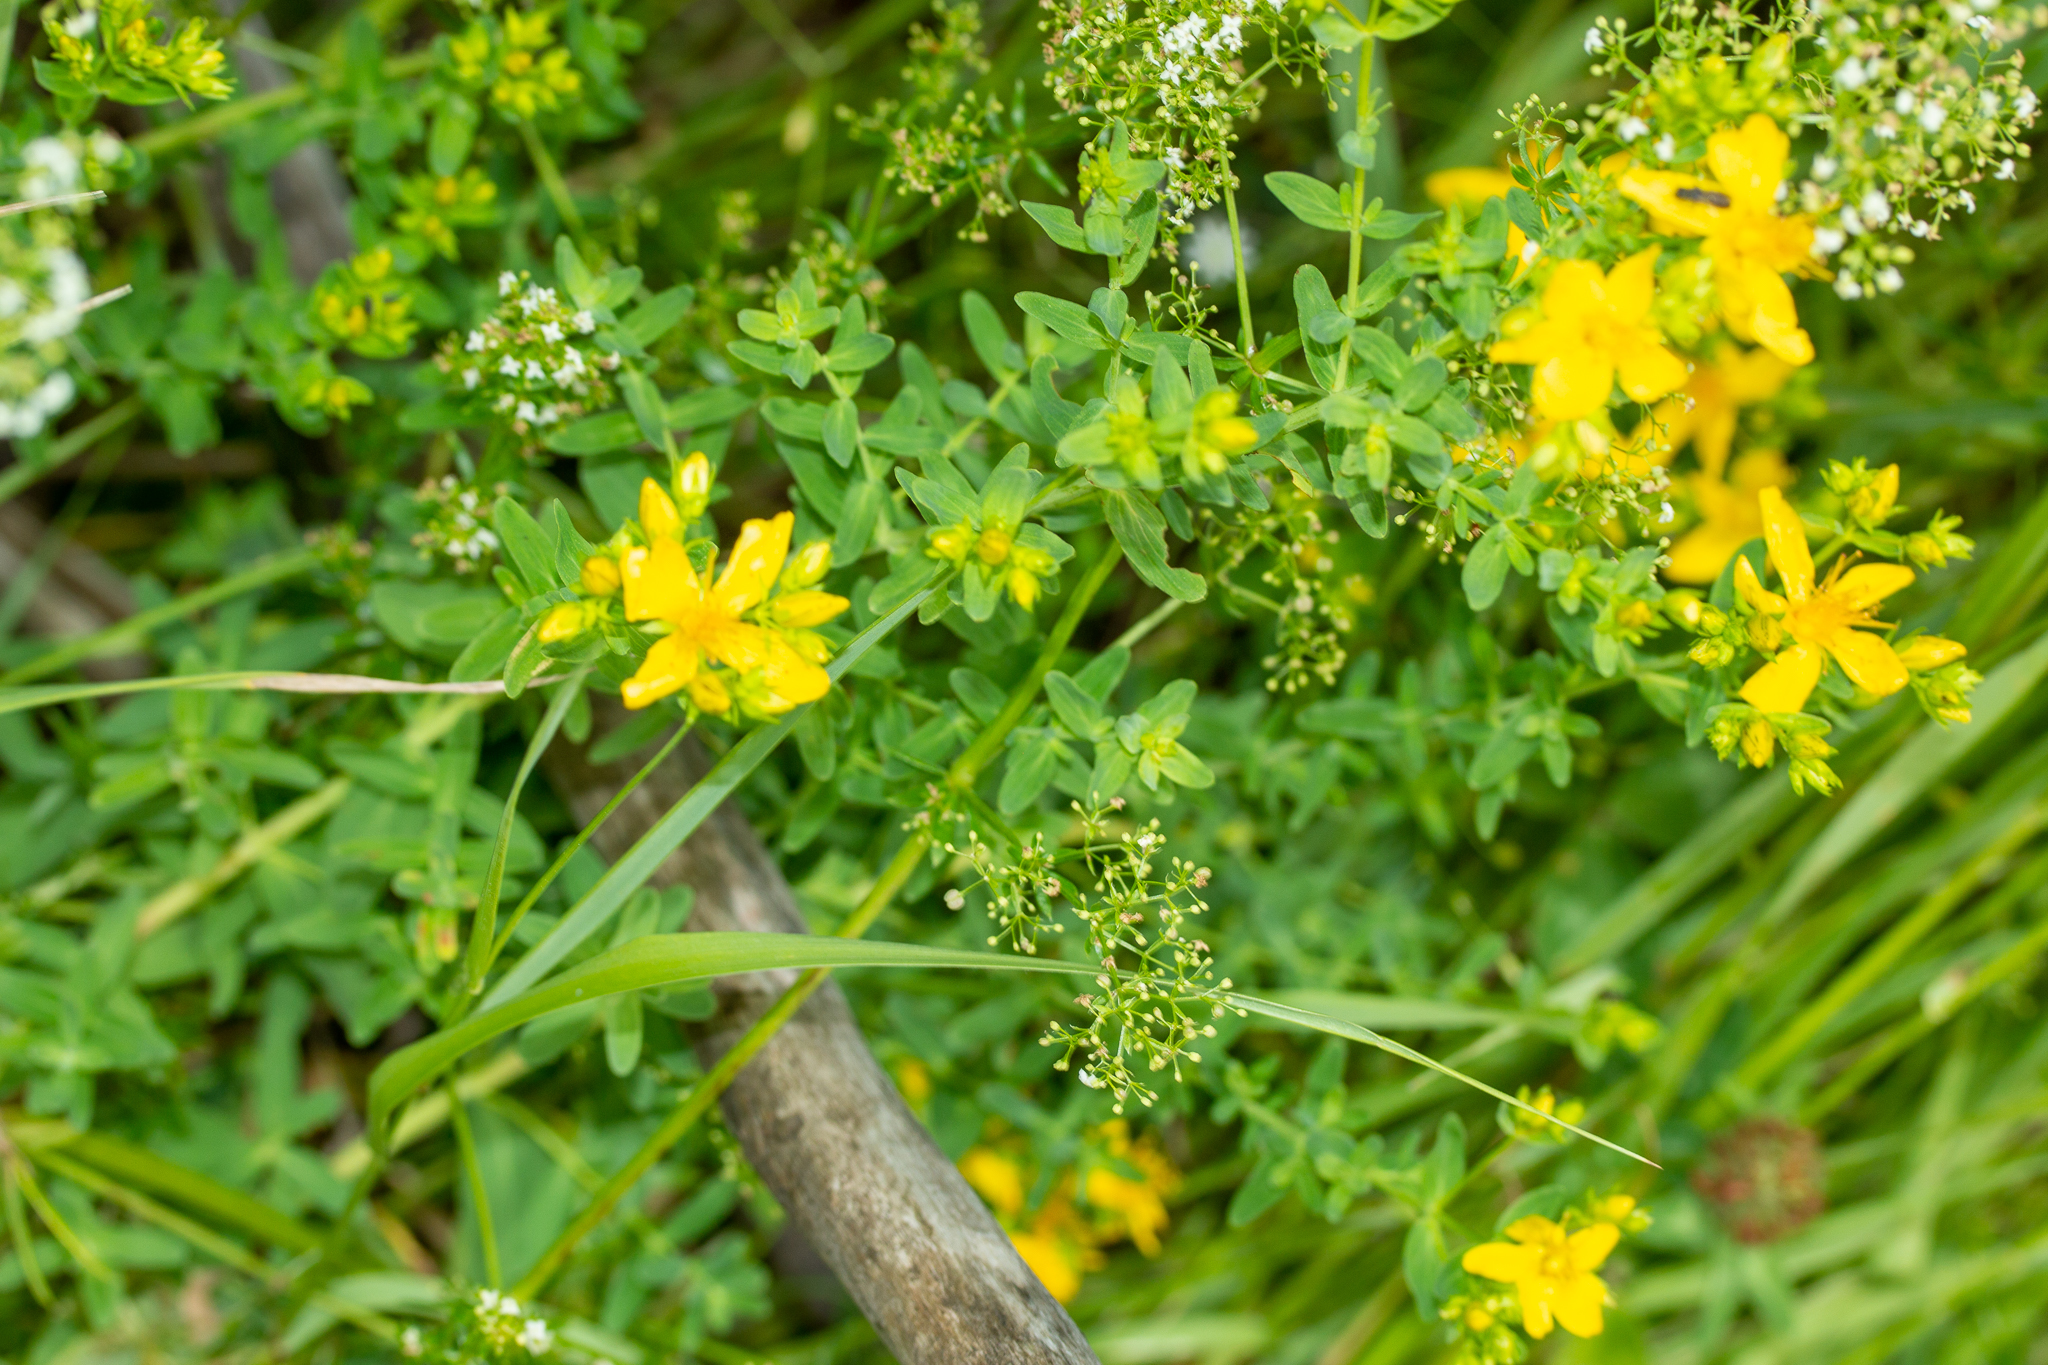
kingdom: Plantae
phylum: Tracheophyta
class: Magnoliopsida
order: Malpighiales
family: Hypericaceae
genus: Hypericum
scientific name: Hypericum perforatum
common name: Common st. johnswort
